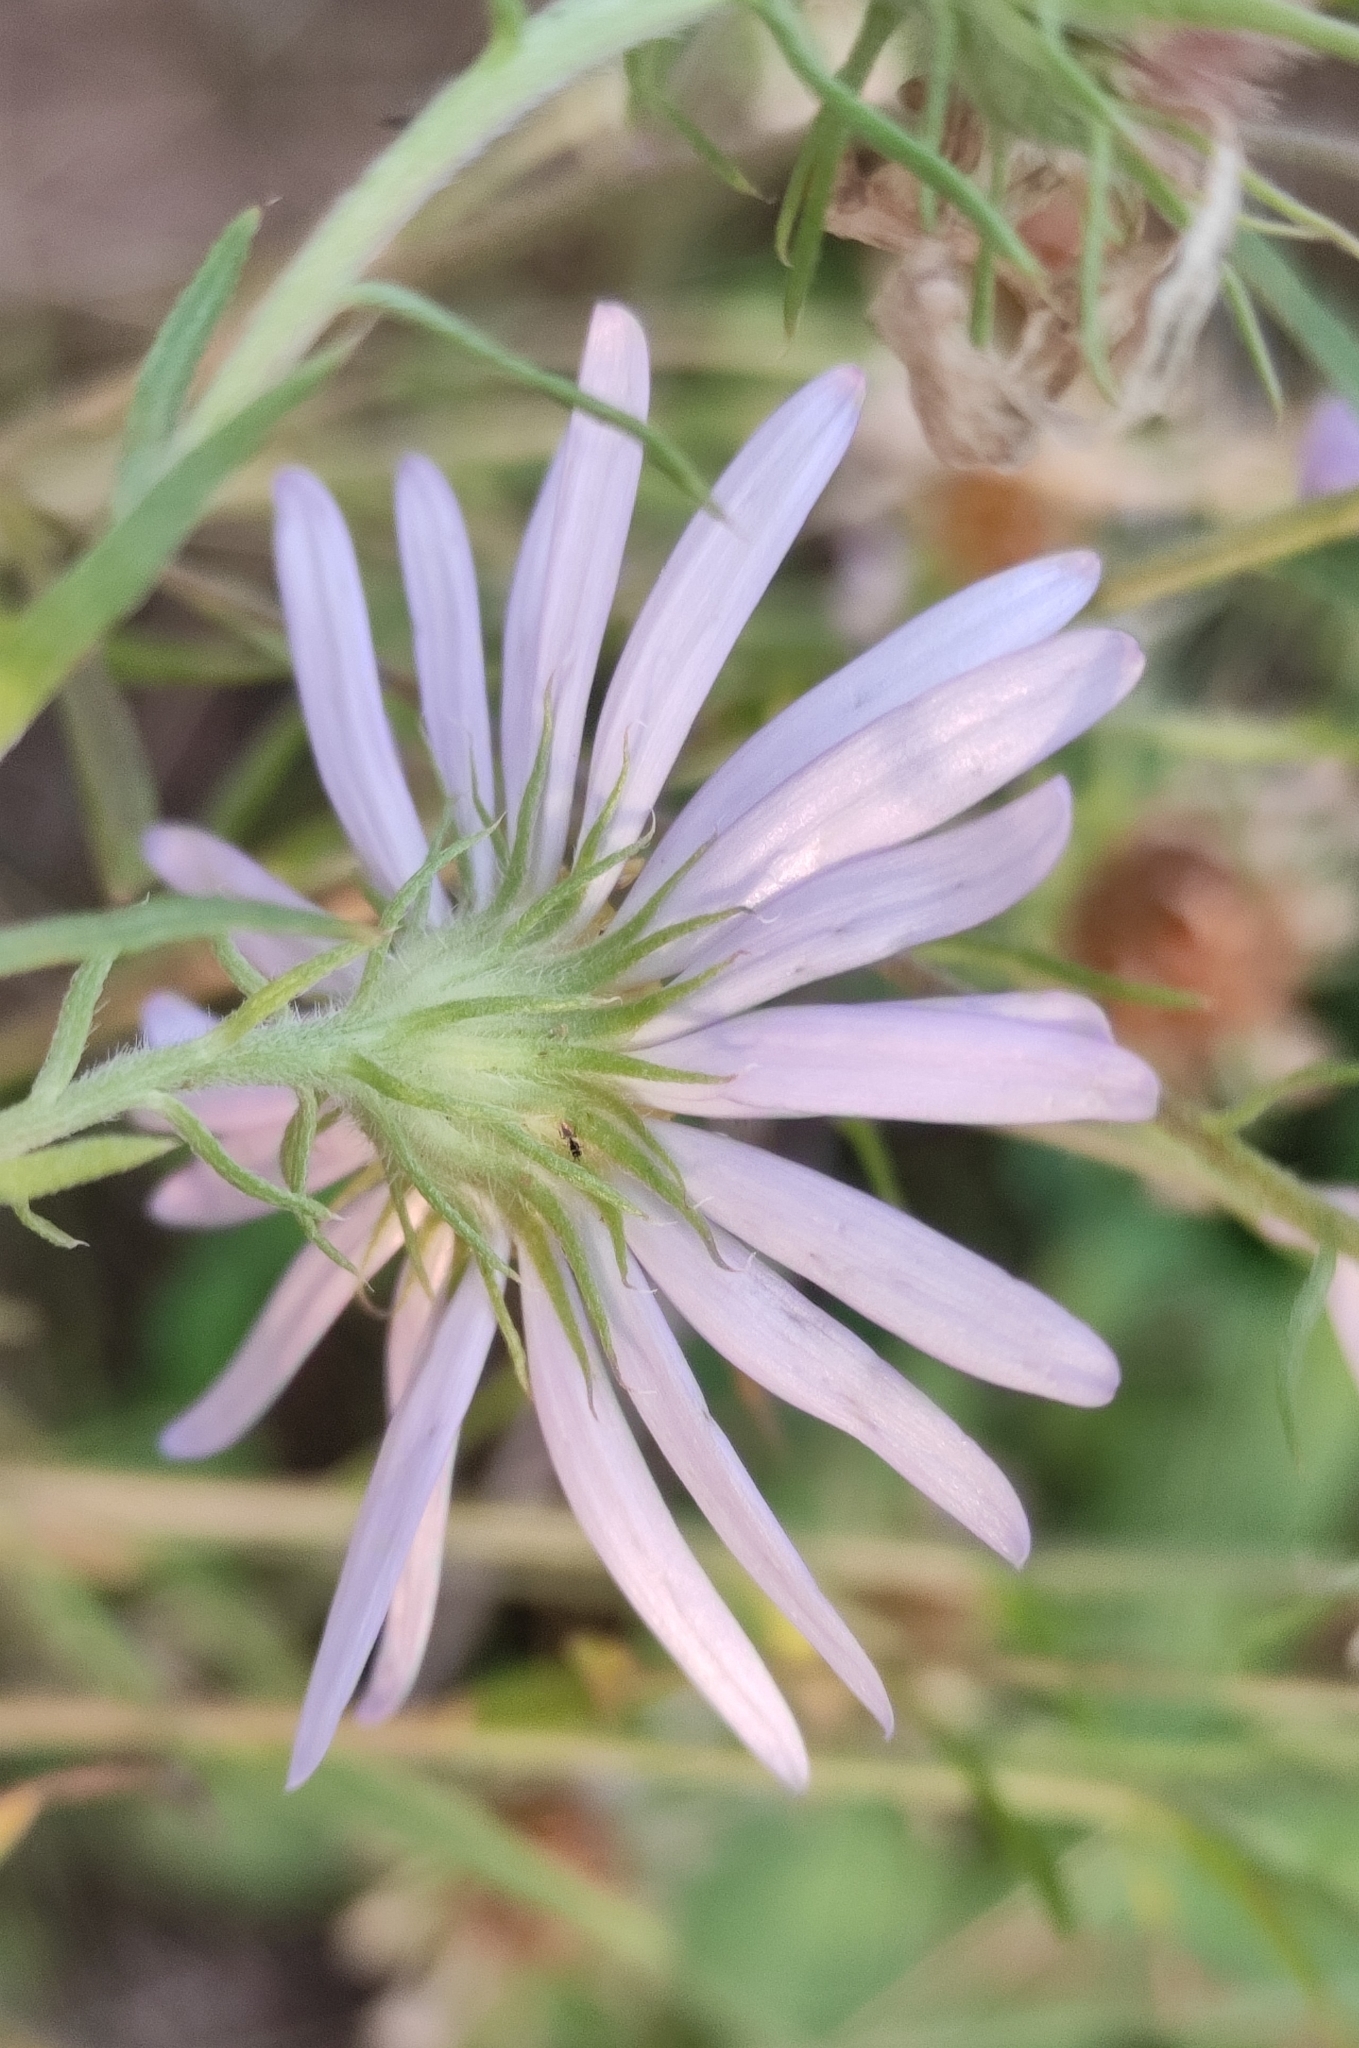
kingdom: Plantae
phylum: Tracheophyta
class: Magnoliopsida
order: Asterales
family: Asteraceae
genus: Aster
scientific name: Aster biennis
